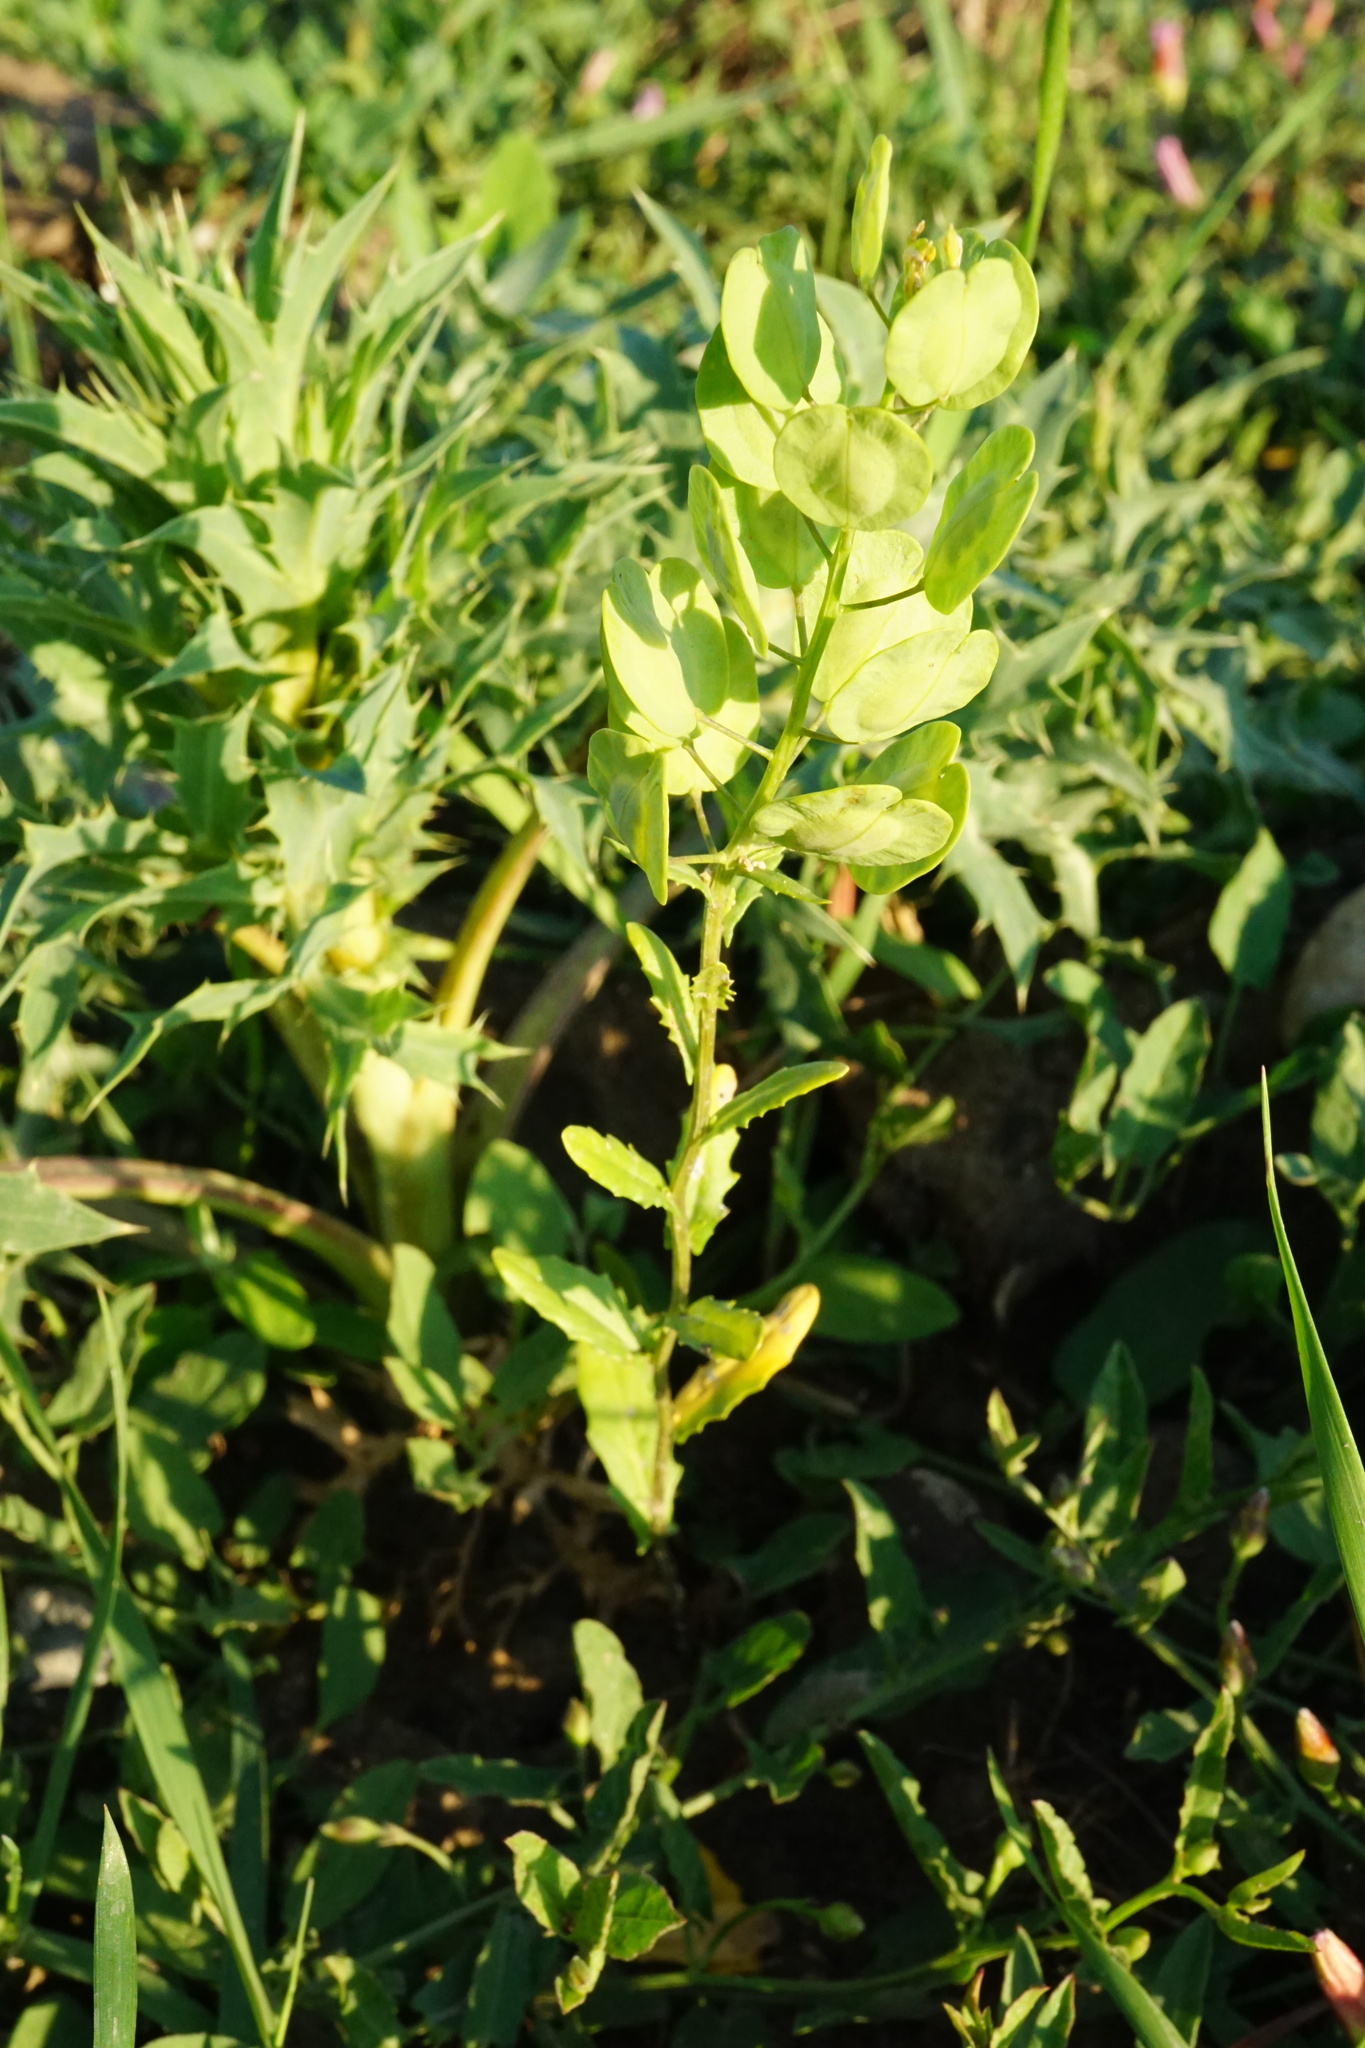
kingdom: Plantae
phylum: Tracheophyta
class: Magnoliopsida
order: Brassicales
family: Brassicaceae
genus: Thlaspi
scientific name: Thlaspi arvense
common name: Field pennycress
